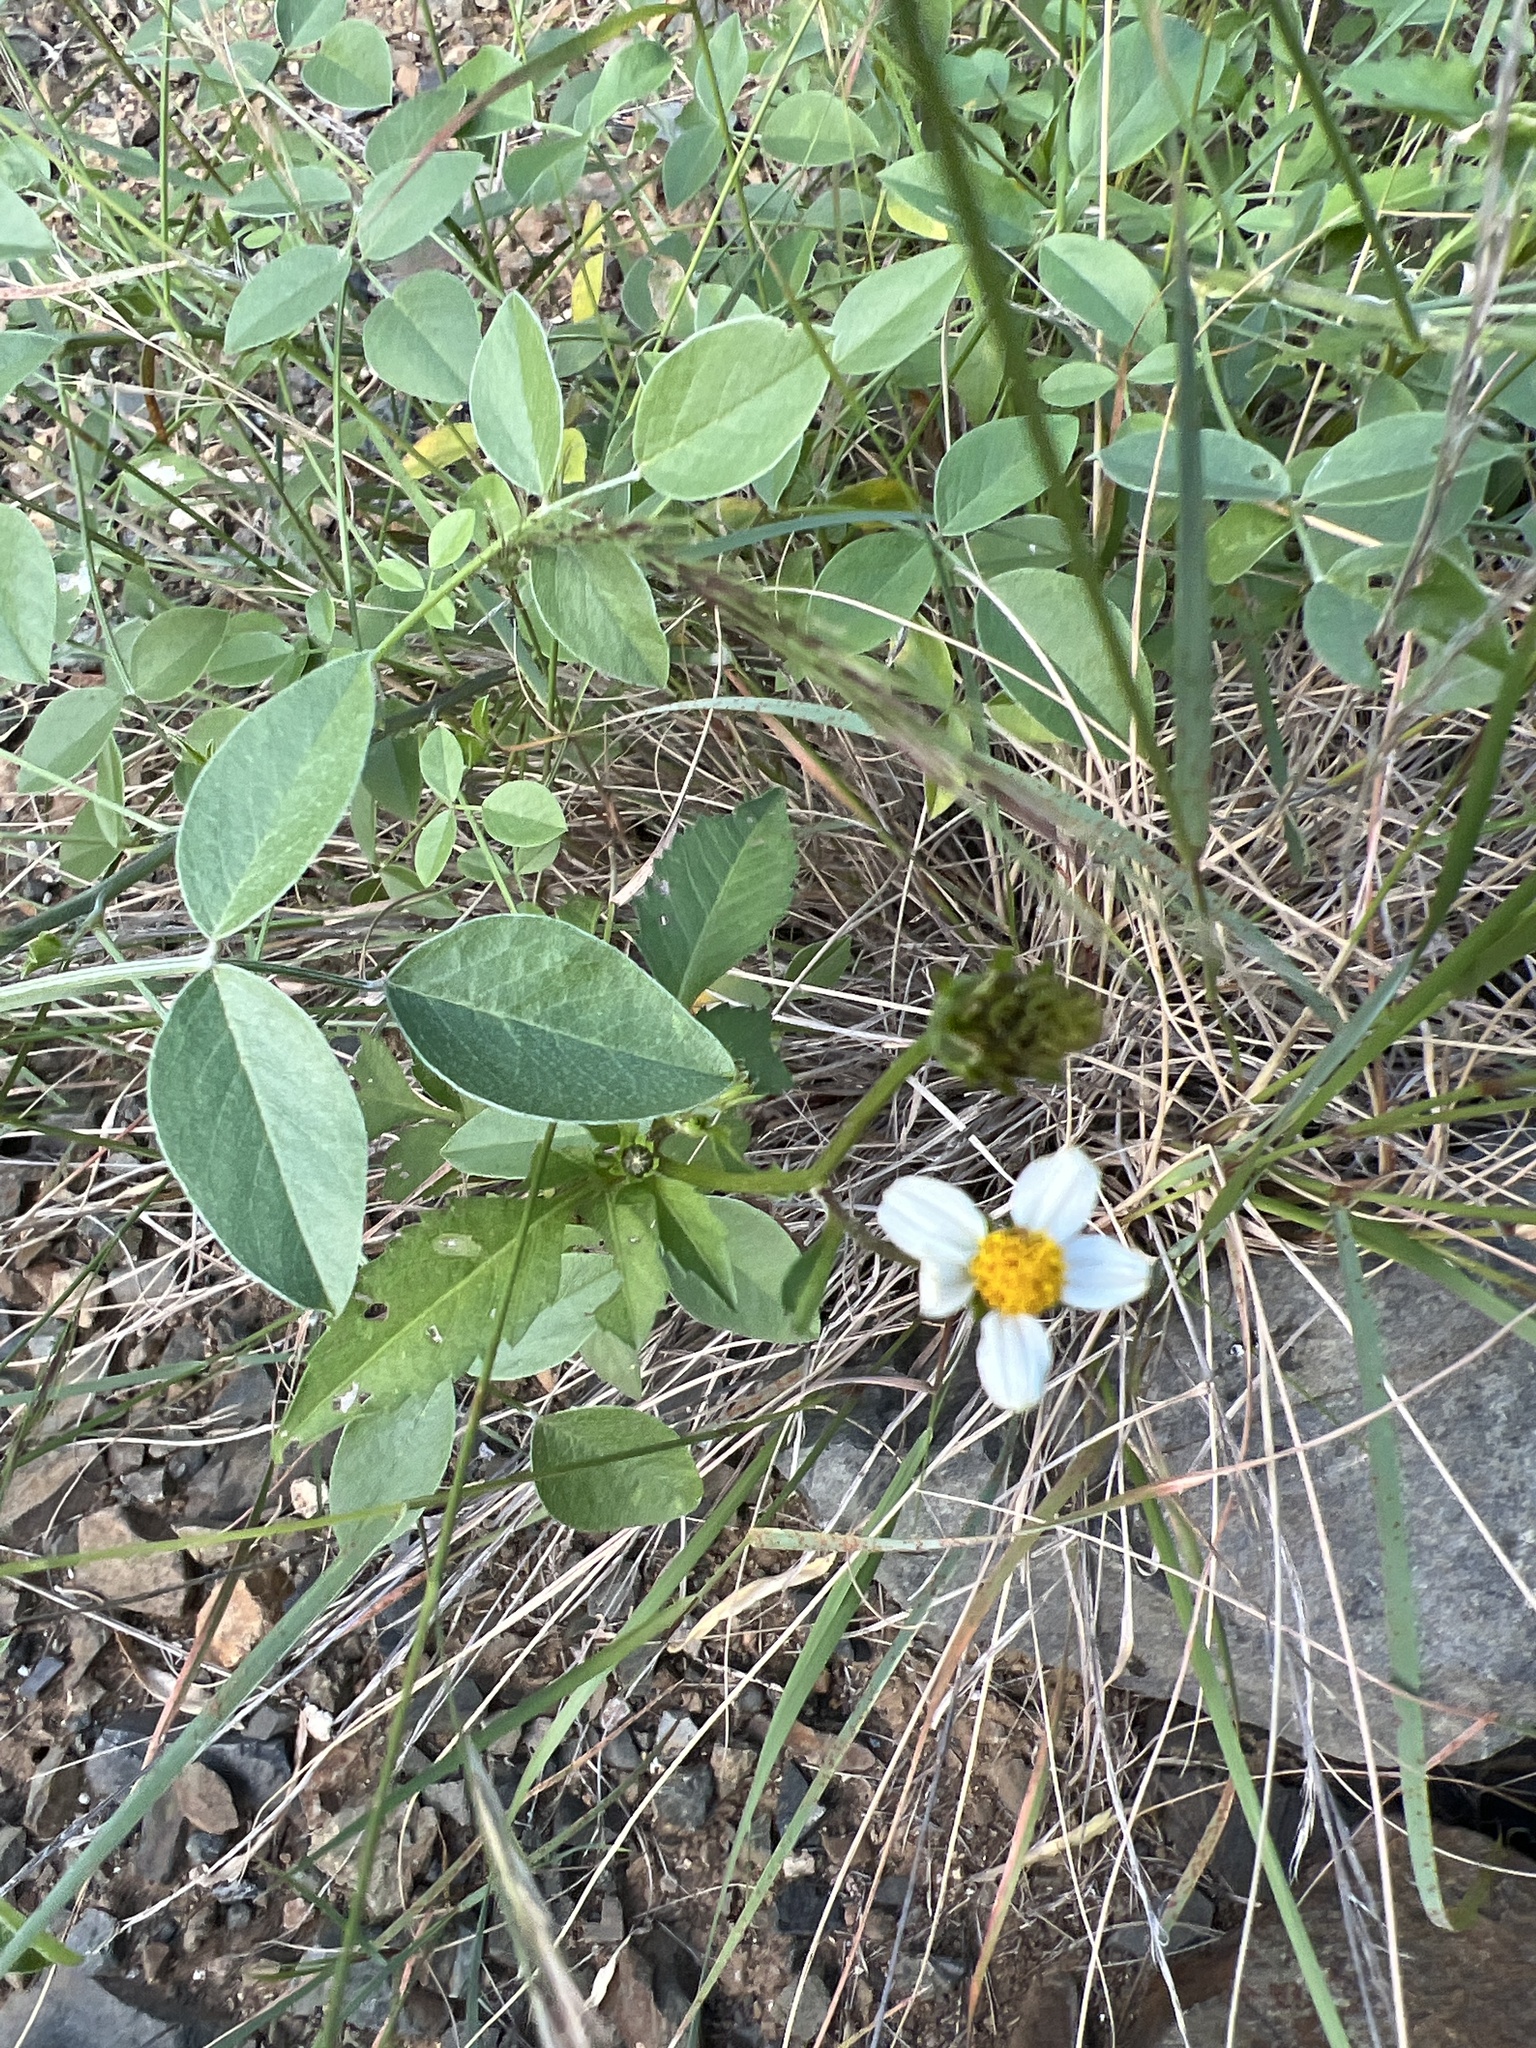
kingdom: Plantae
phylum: Tracheophyta
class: Magnoliopsida
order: Asterales
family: Asteraceae
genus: Bidens
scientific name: Bidens pilosa
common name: Black-jack
